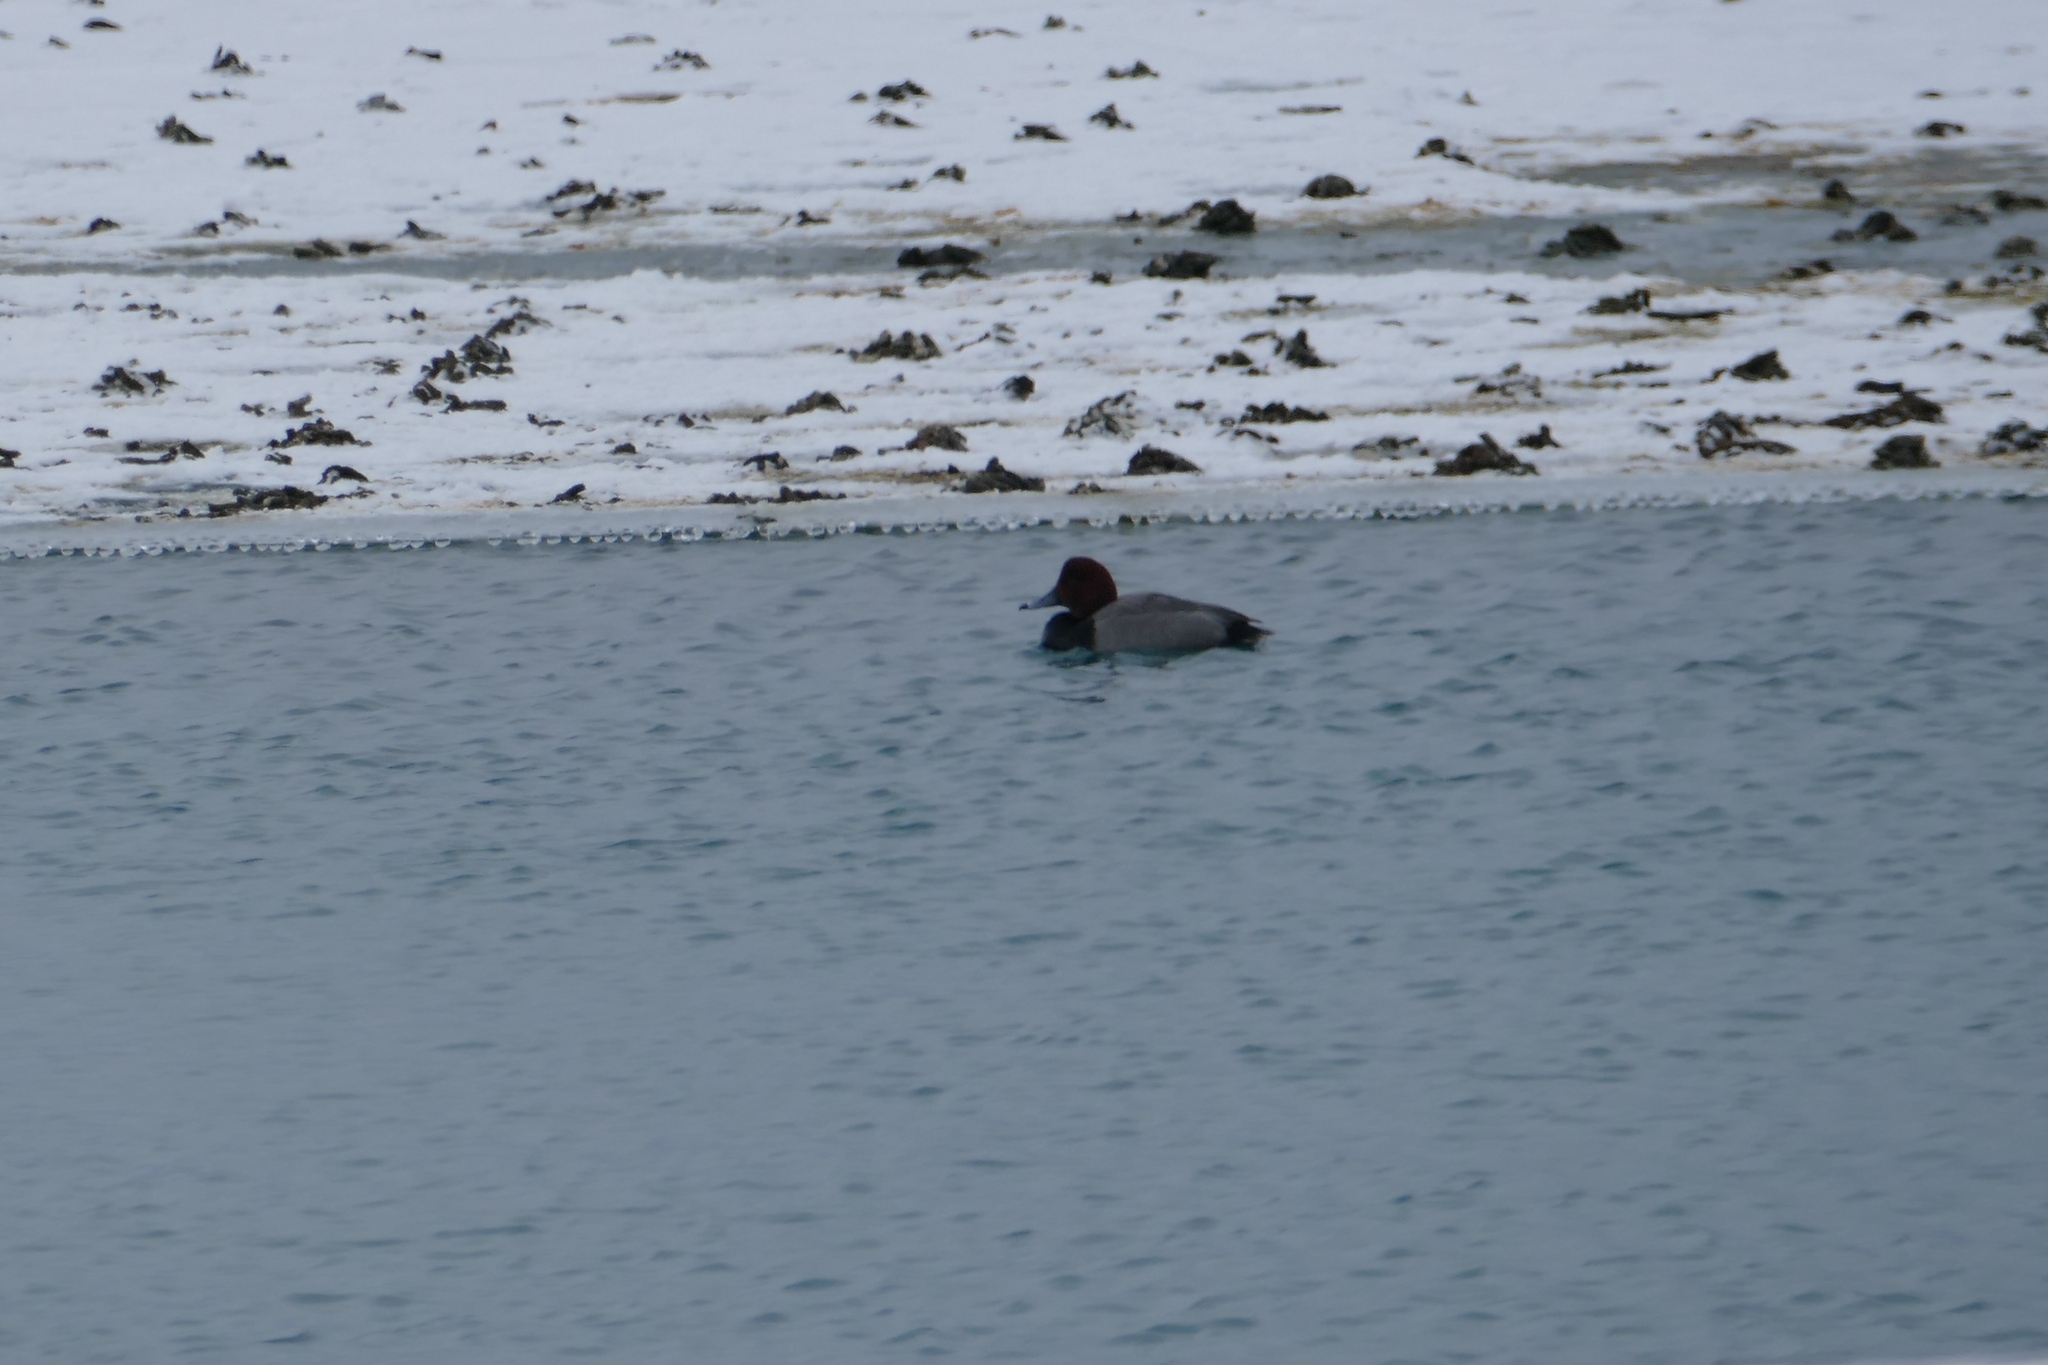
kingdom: Animalia
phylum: Chordata
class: Aves
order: Anseriformes
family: Anatidae
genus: Aythya
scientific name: Aythya americana
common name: Redhead
